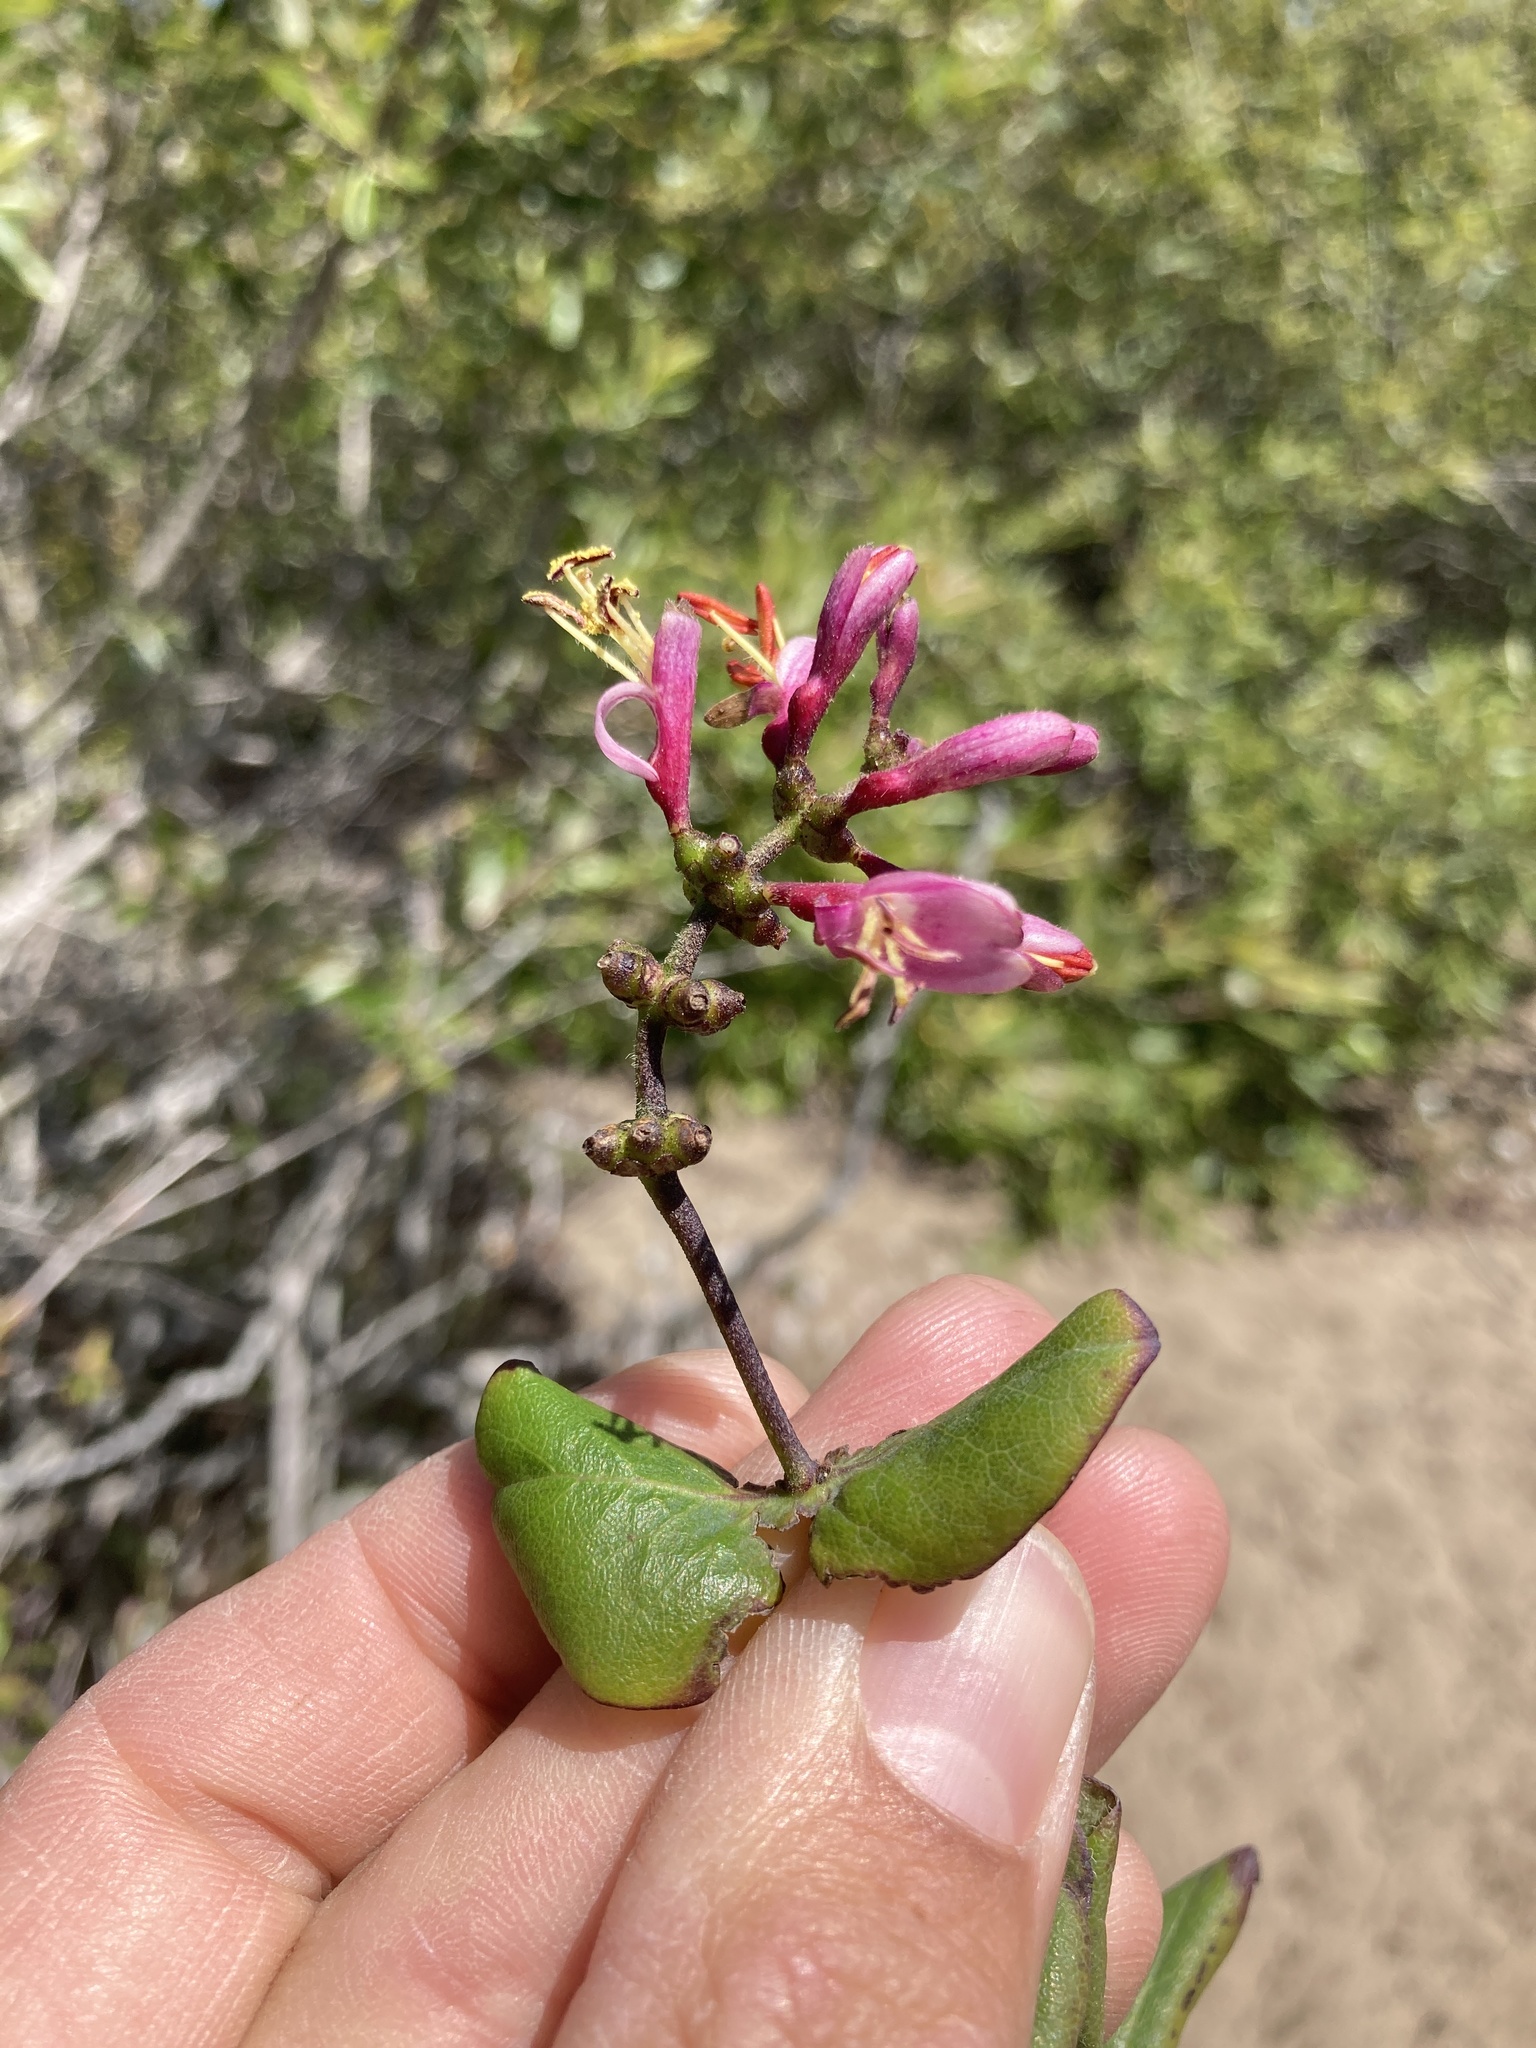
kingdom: Plantae
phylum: Tracheophyta
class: Magnoliopsida
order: Dipsacales
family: Caprifoliaceae
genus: Lonicera
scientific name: Lonicera hispidula
